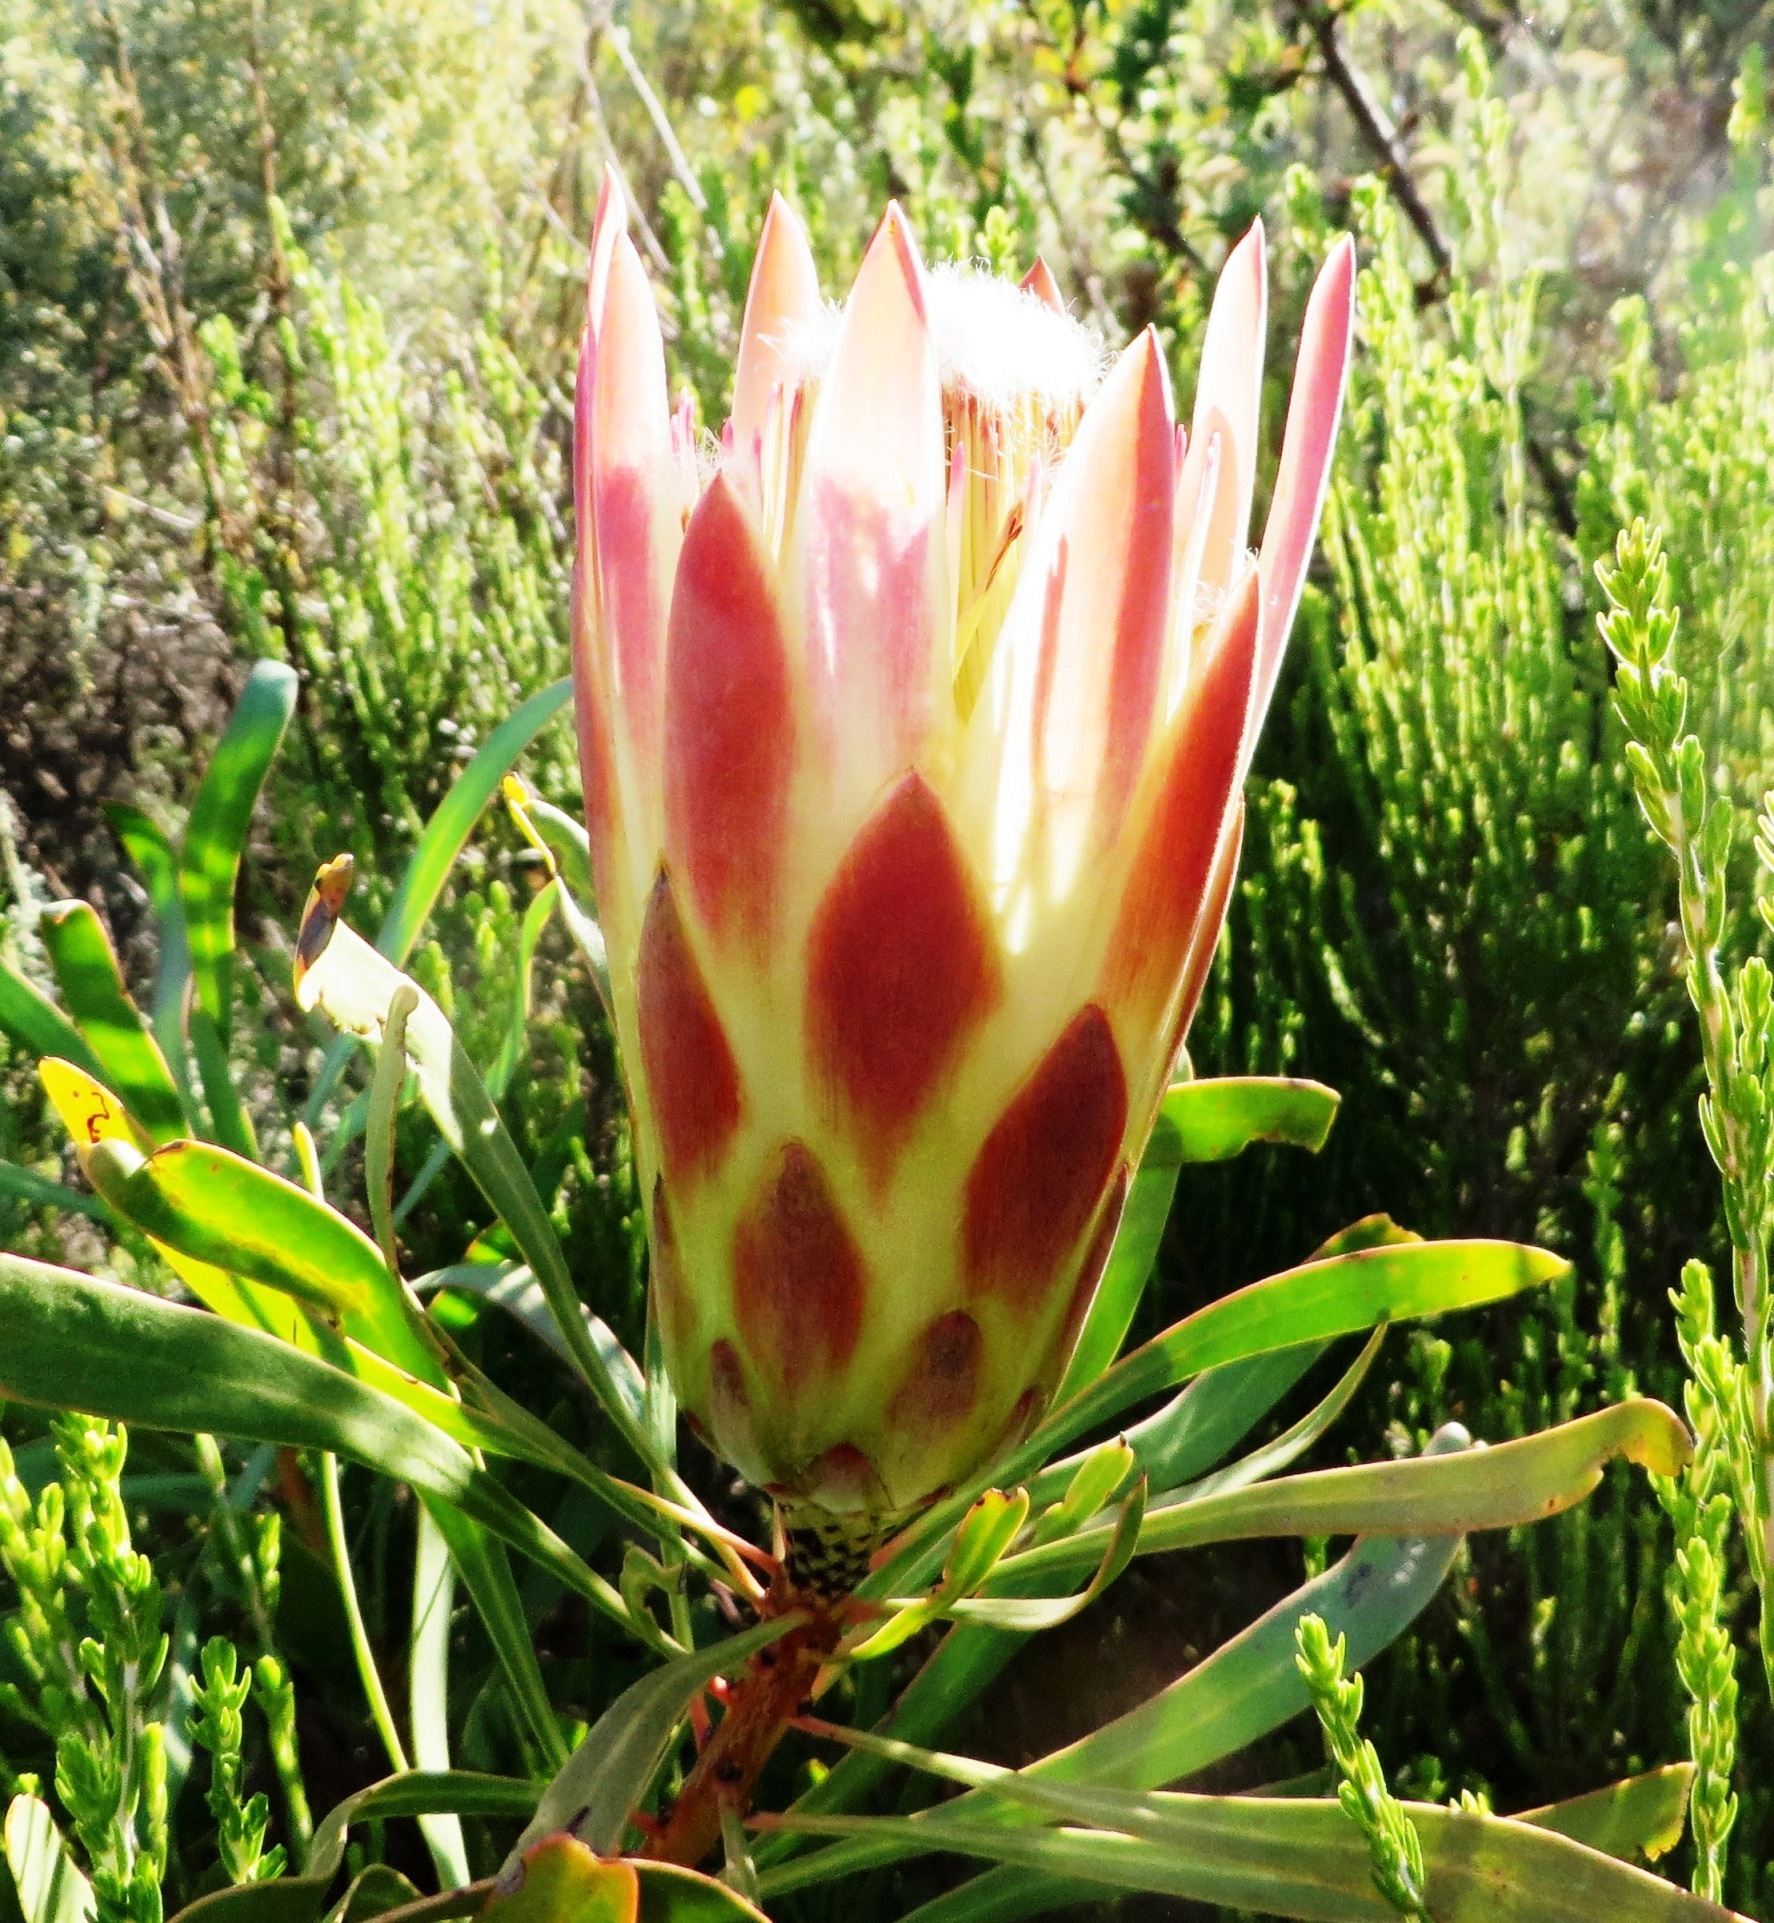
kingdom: Plantae
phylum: Tracheophyta
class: Magnoliopsida
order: Proteales
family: Proteaceae
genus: Protea
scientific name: Protea repens
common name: Sugarbush
